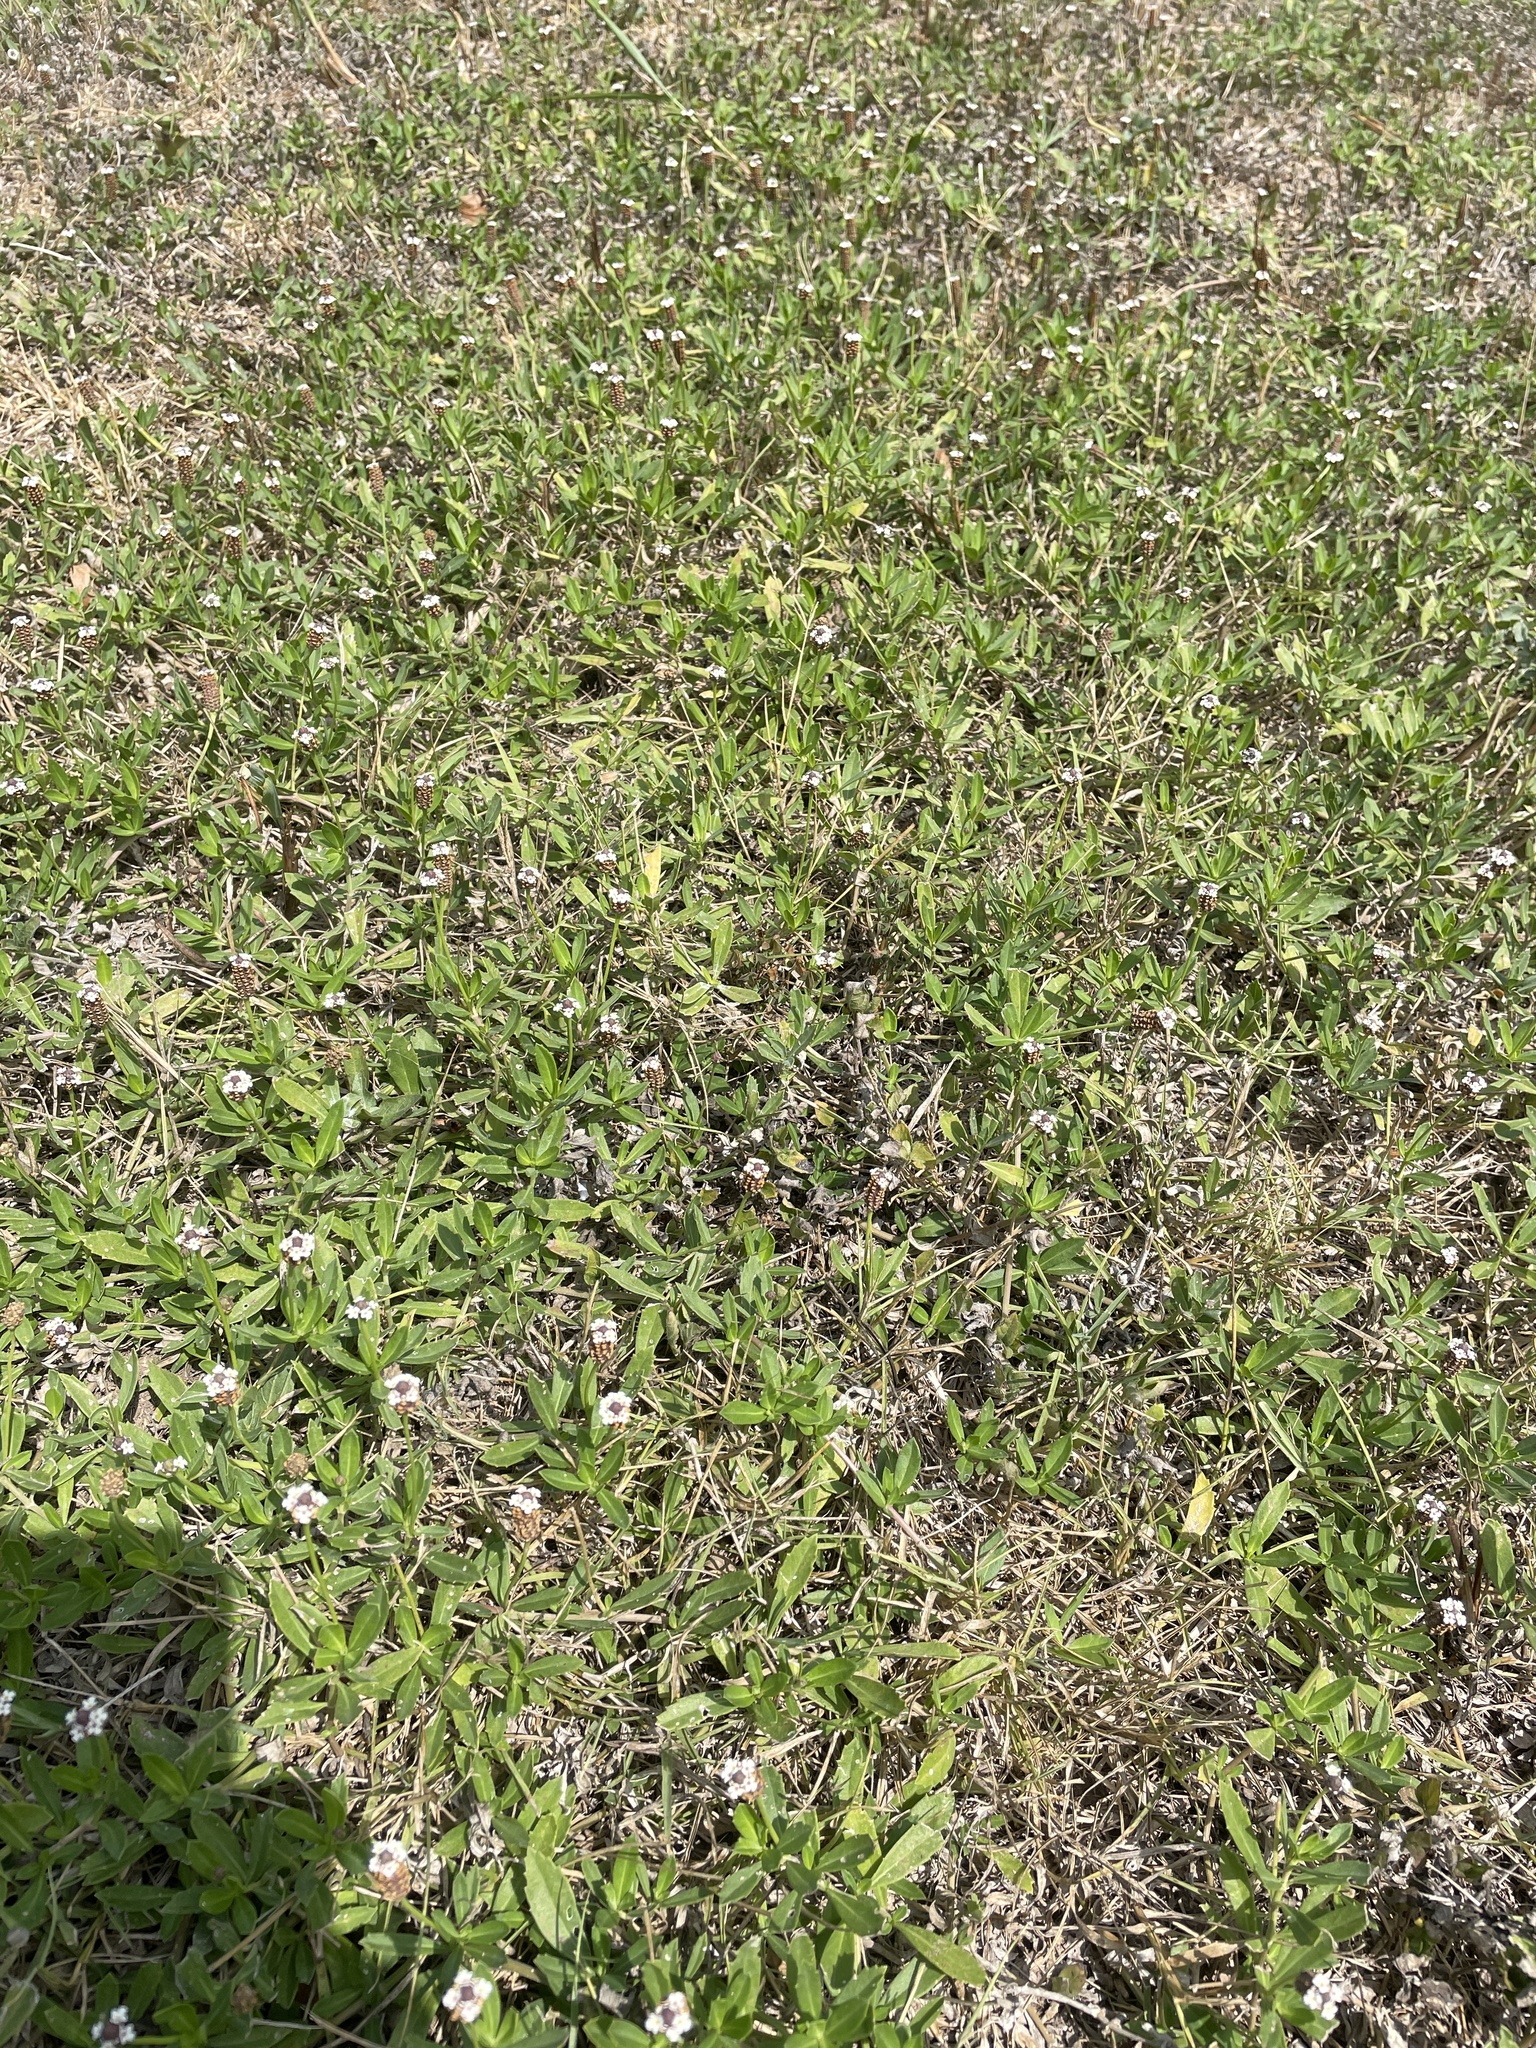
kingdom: Plantae
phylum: Tracheophyta
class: Magnoliopsida
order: Lamiales
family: Verbenaceae
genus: Phyla
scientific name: Phyla nodiflora
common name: Frogfruit
